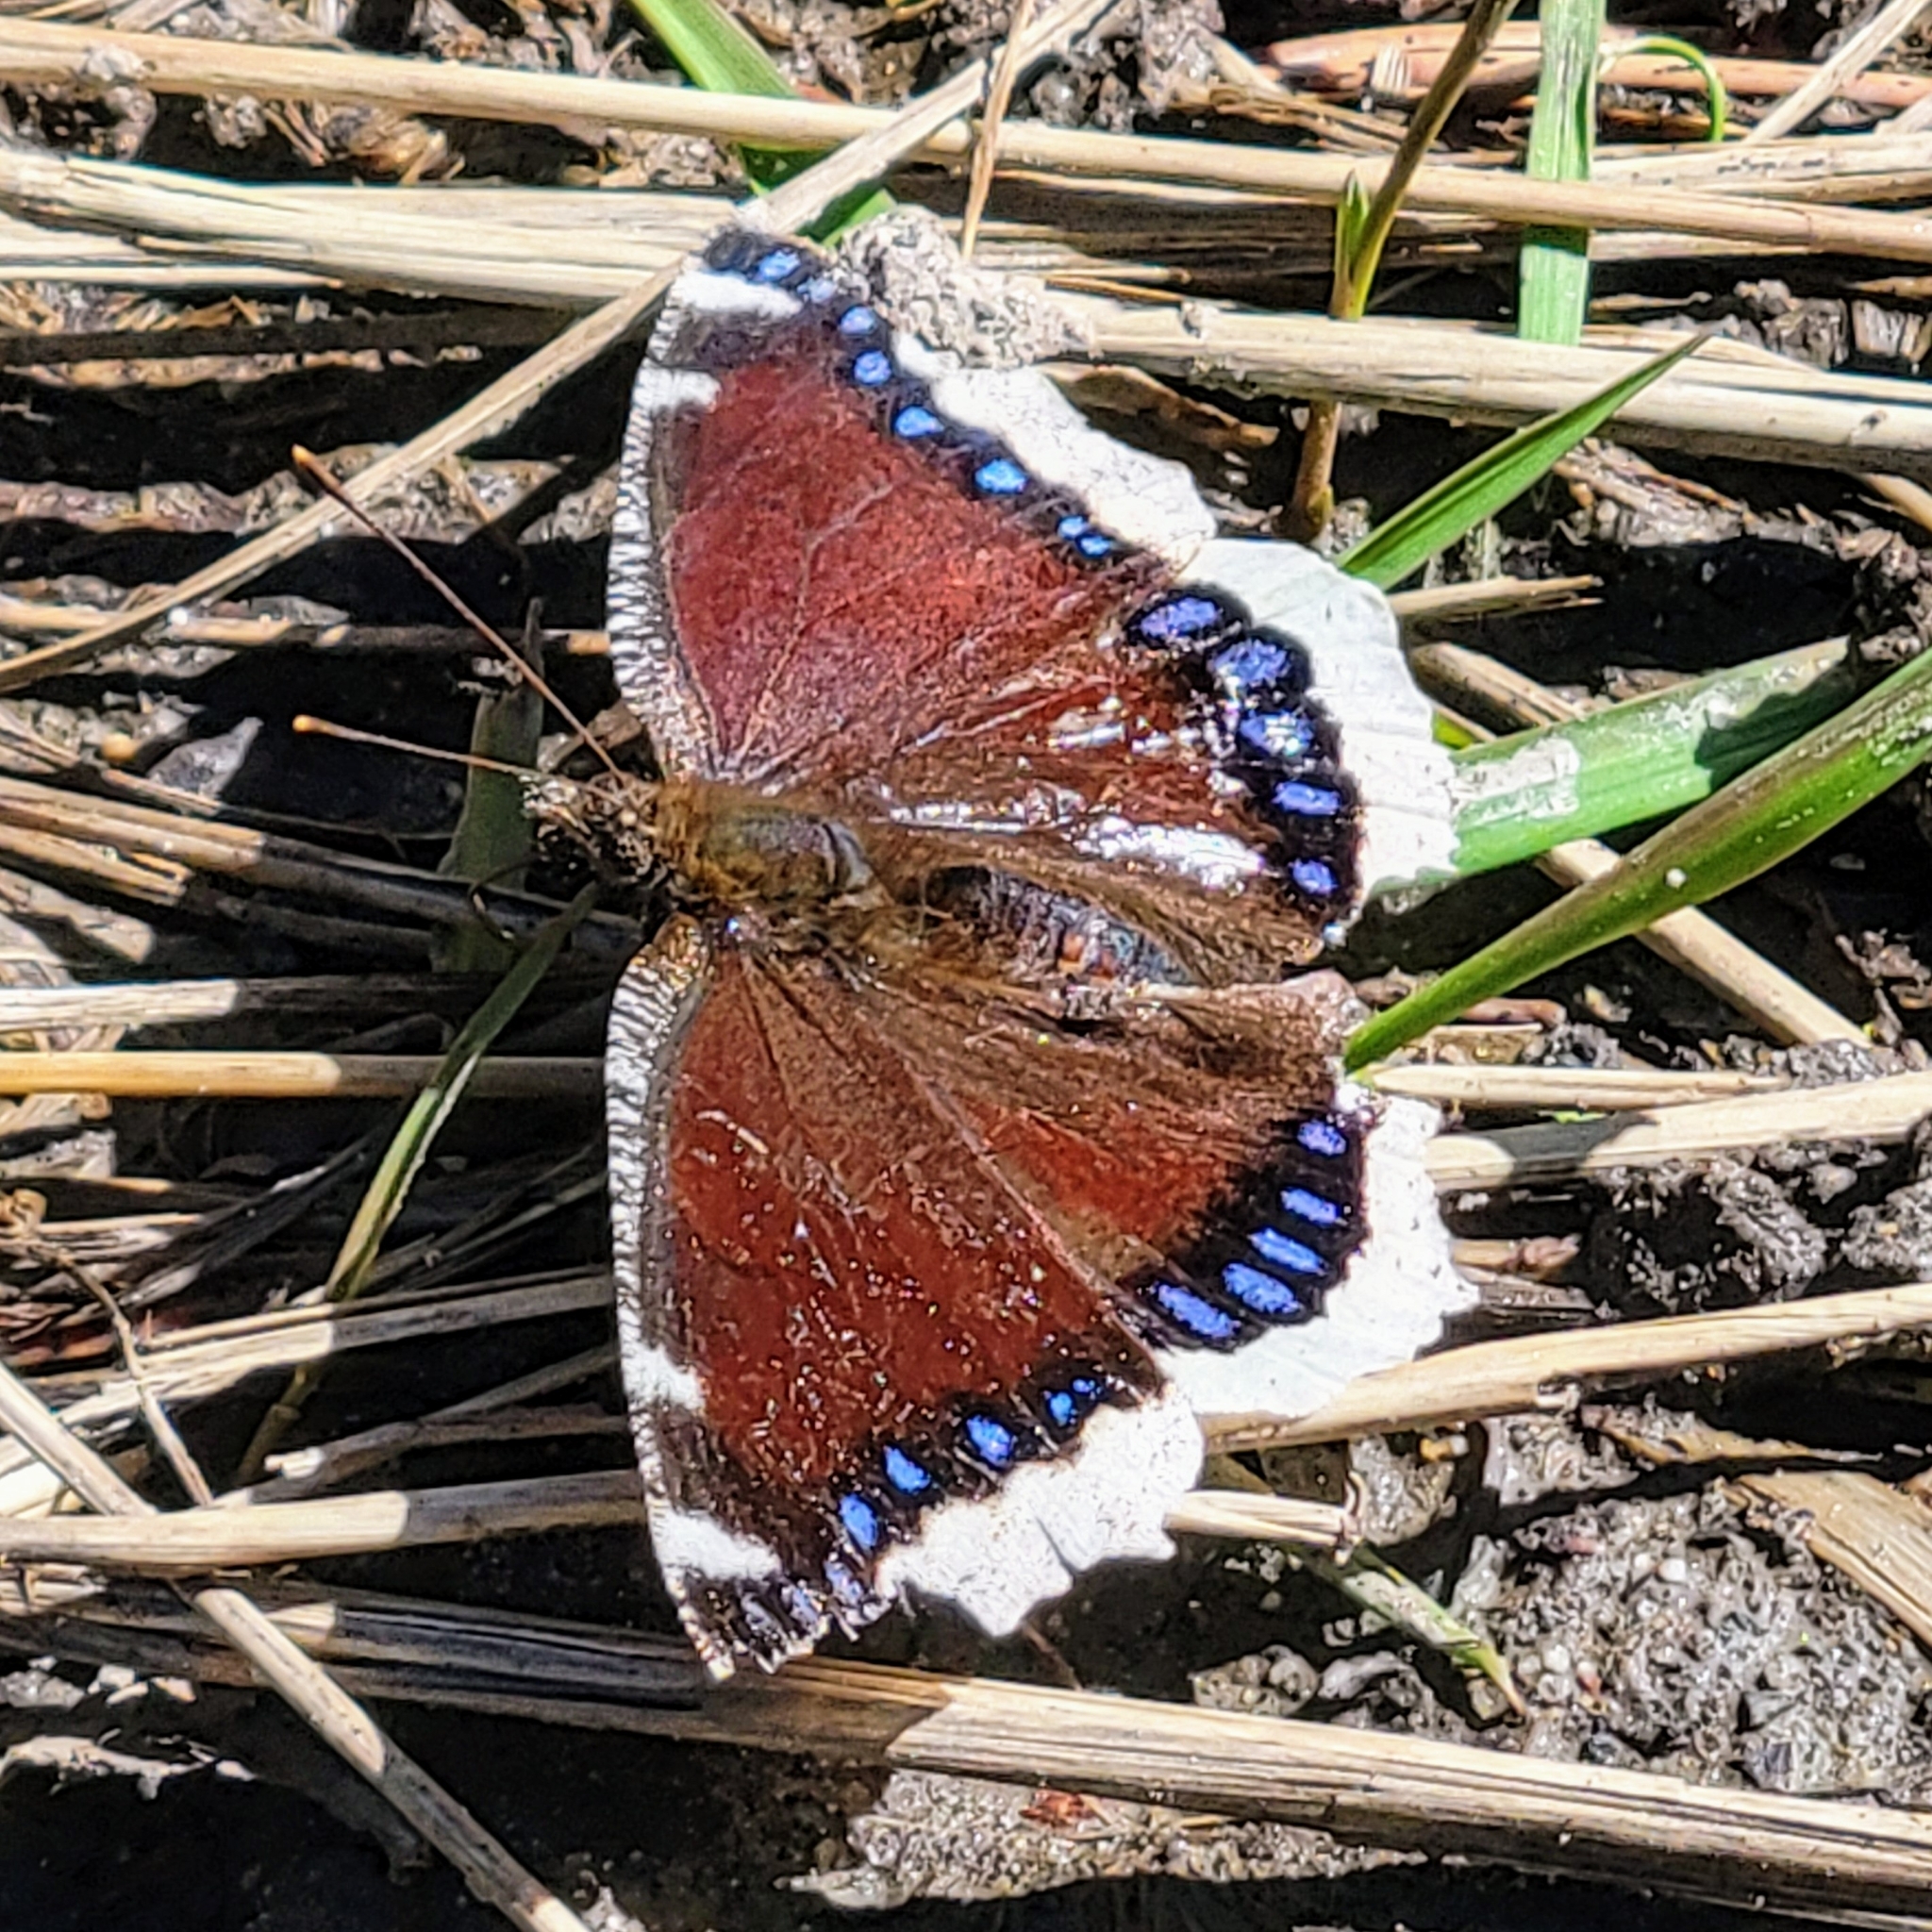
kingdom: Animalia
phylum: Arthropoda
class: Insecta
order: Lepidoptera
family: Nymphalidae
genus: Nymphalis
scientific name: Nymphalis antiopa
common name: Camberwell beauty
